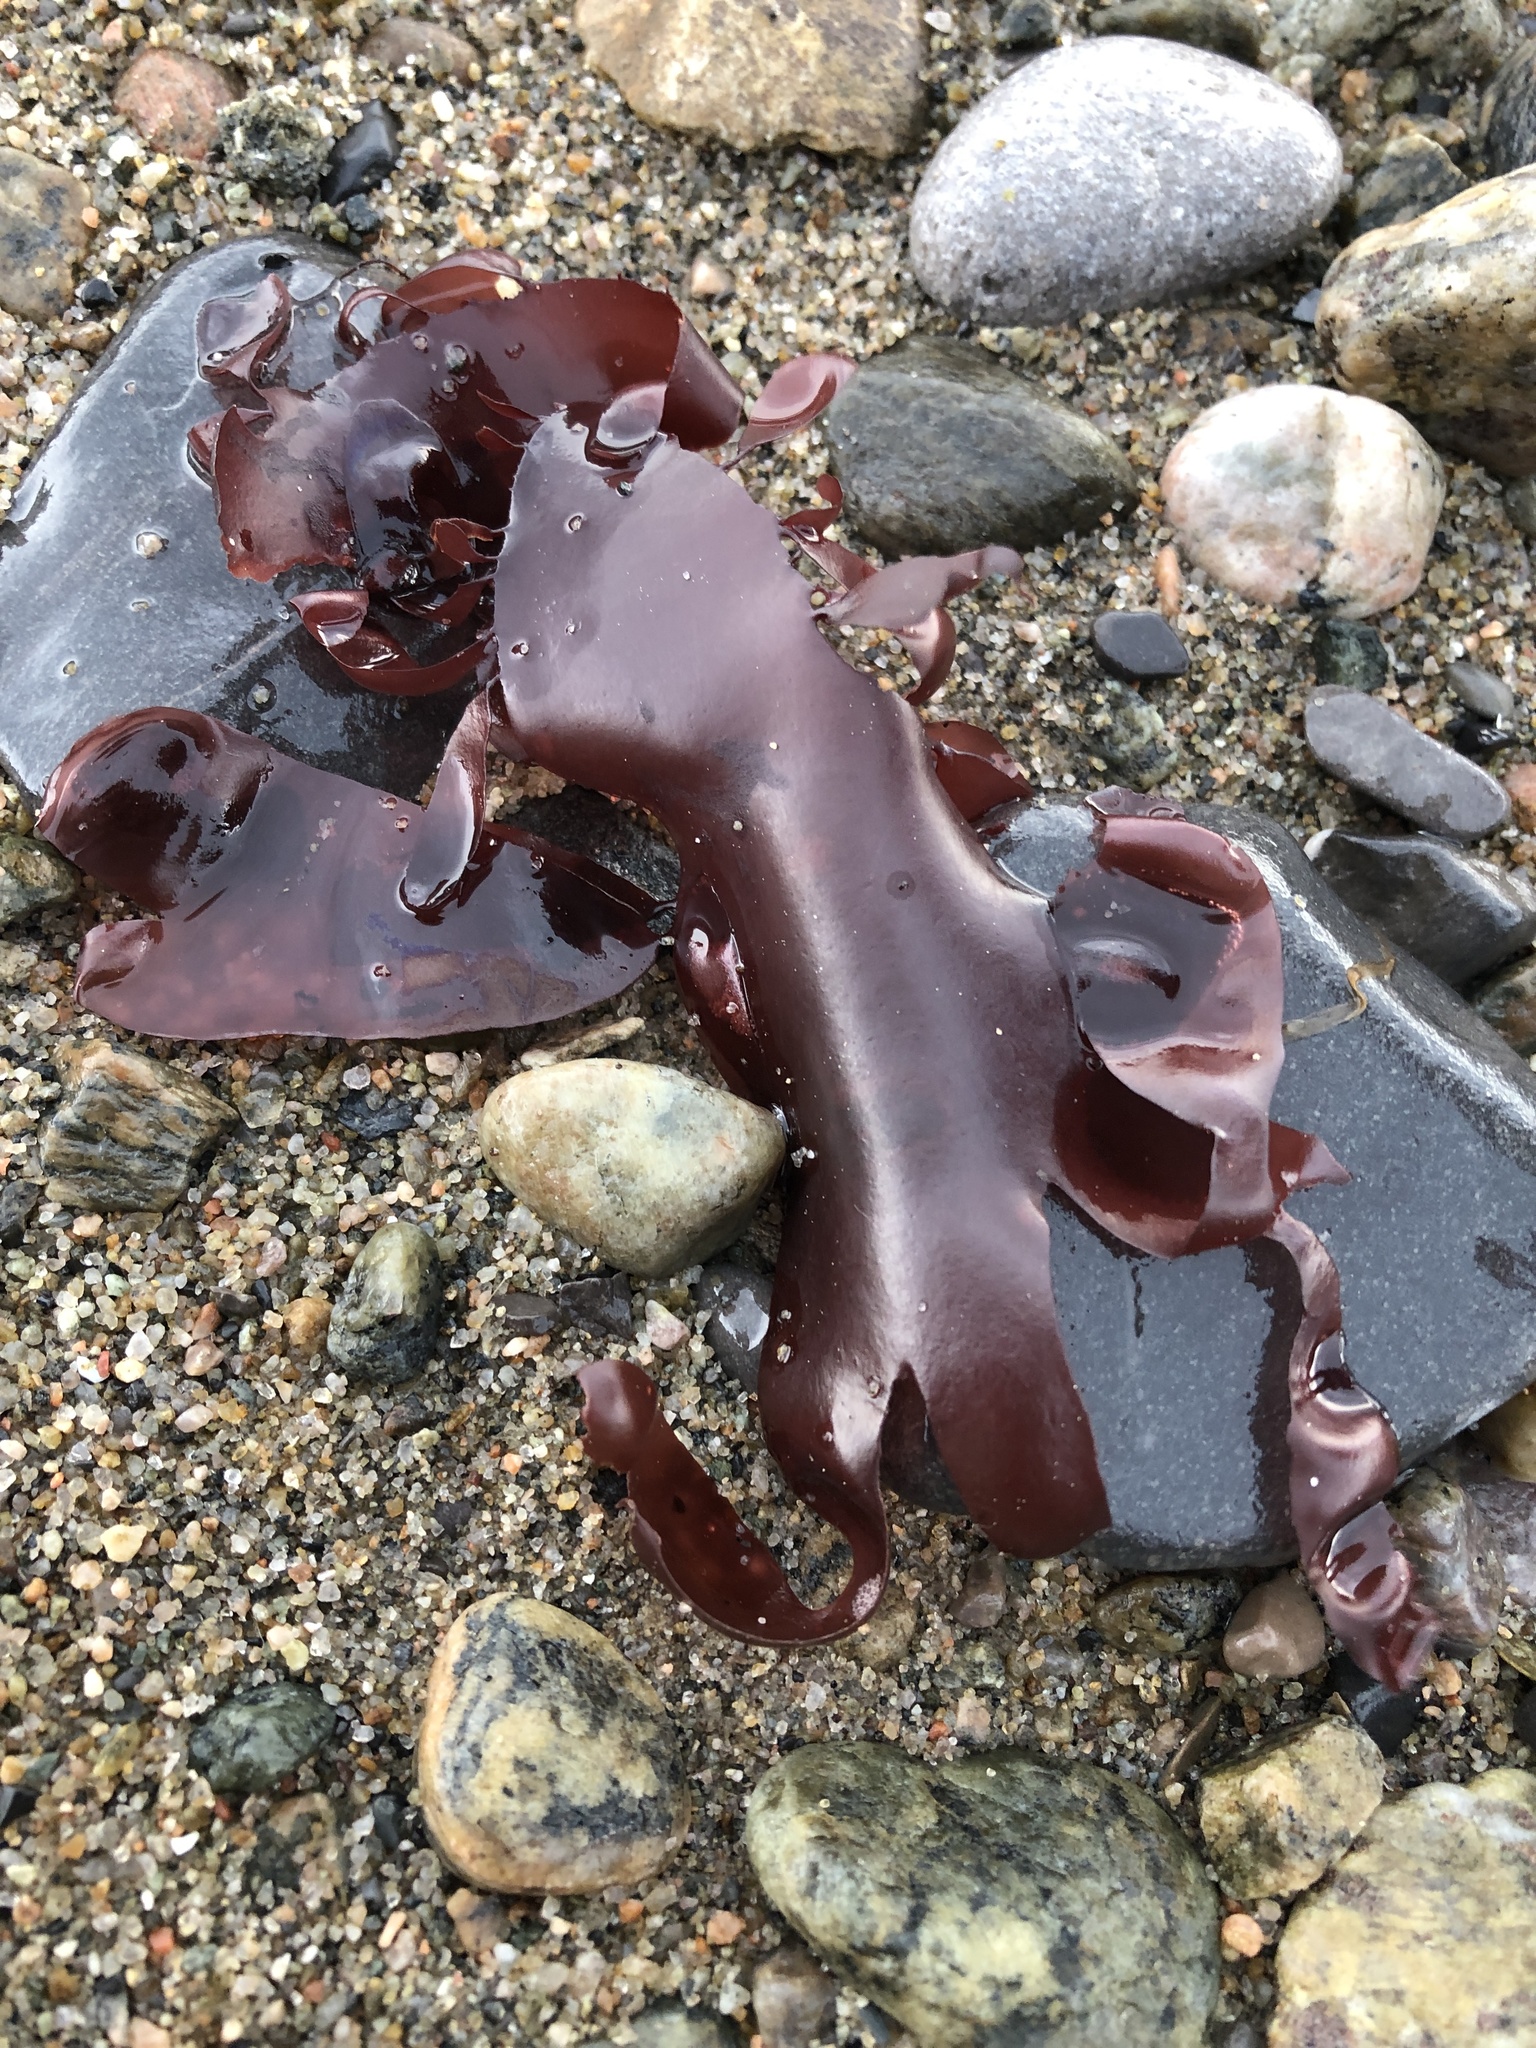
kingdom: Plantae
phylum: Rhodophyta
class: Florideophyceae
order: Palmariales
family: Palmariaceae
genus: Palmaria
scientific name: Palmaria palmata
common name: Dulse
